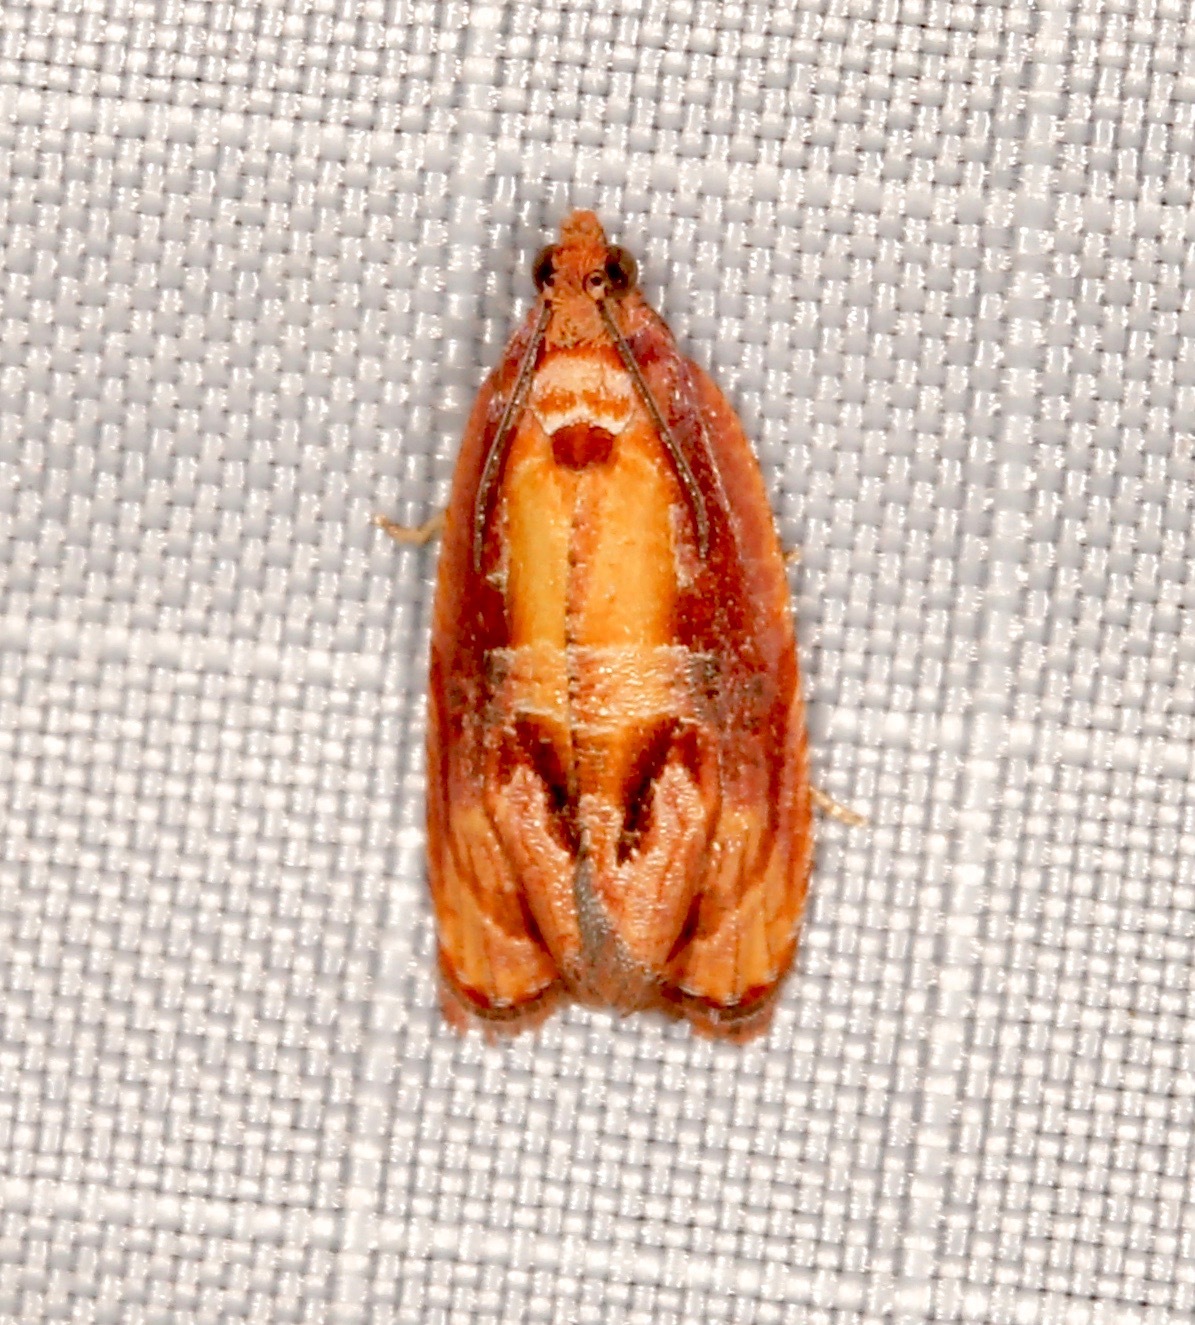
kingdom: Animalia
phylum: Arthropoda
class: Insecta
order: Lepidoptera
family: Tortricidae
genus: Zomaria
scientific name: Zomaria rosaochreana
